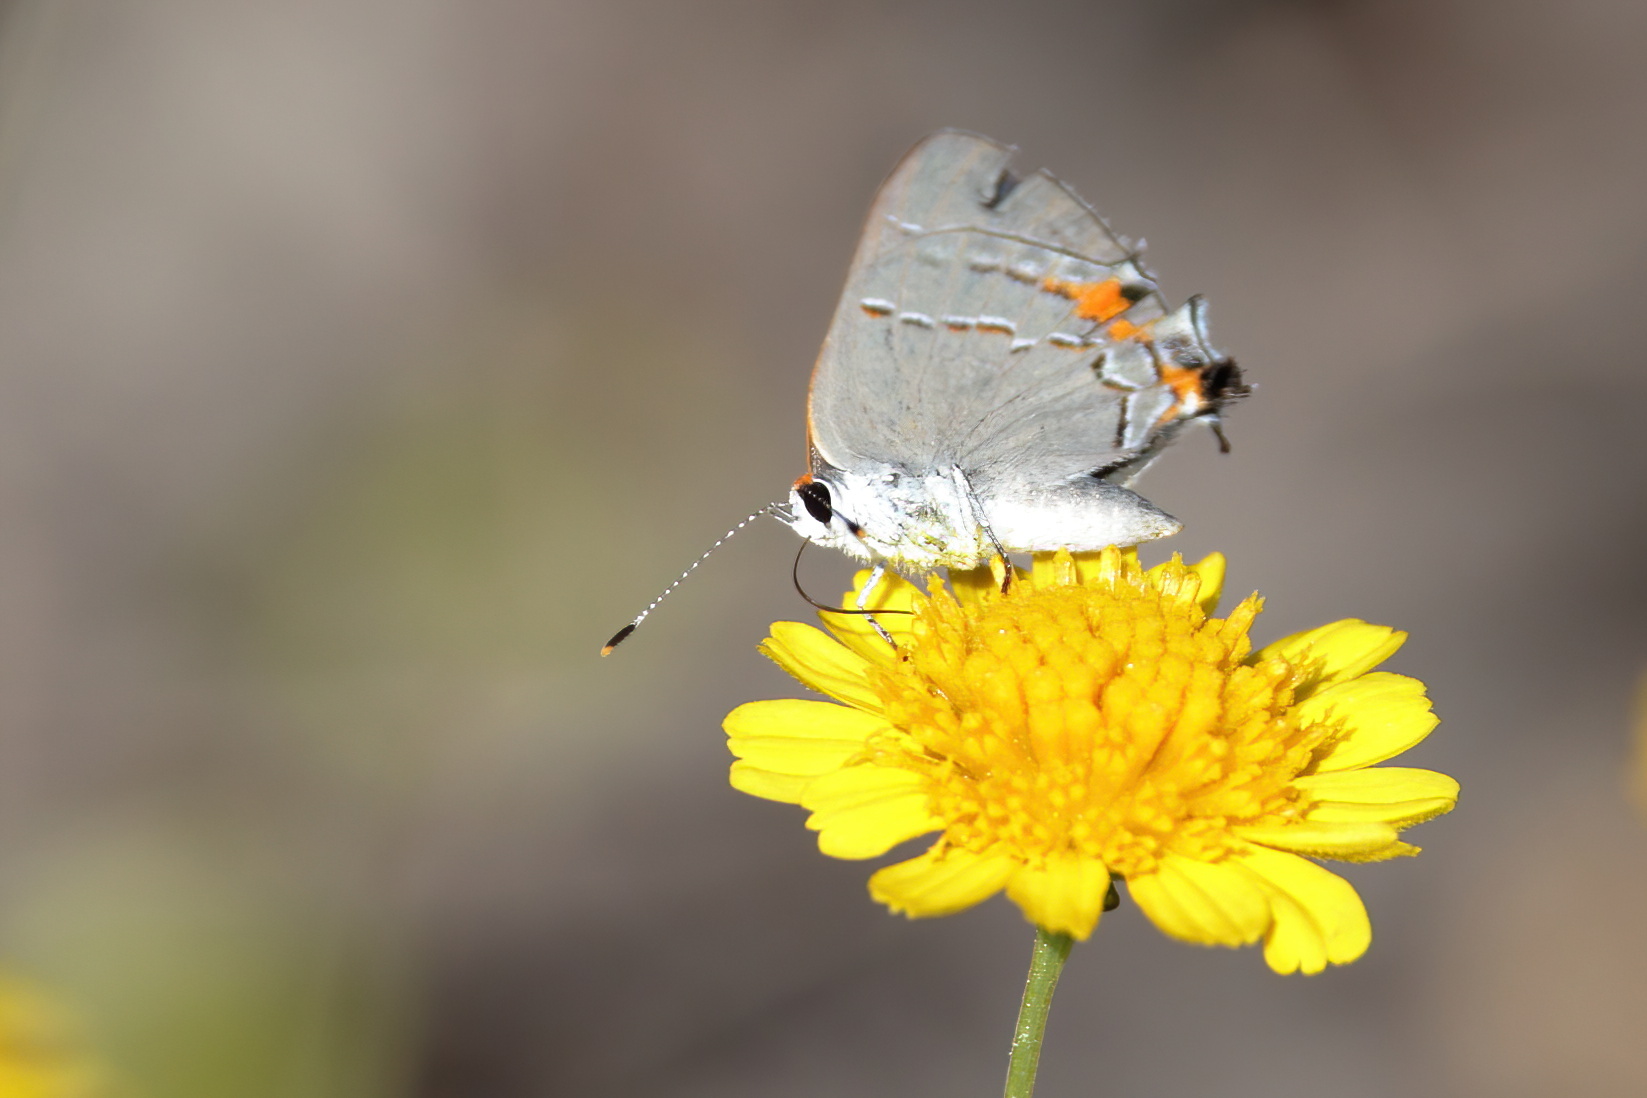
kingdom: Animalia
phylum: Arthropoda
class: Insecta
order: Lepidoptera
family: Lycaenidae
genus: Strymon
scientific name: Strymon melinus
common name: Gray hairstreak
